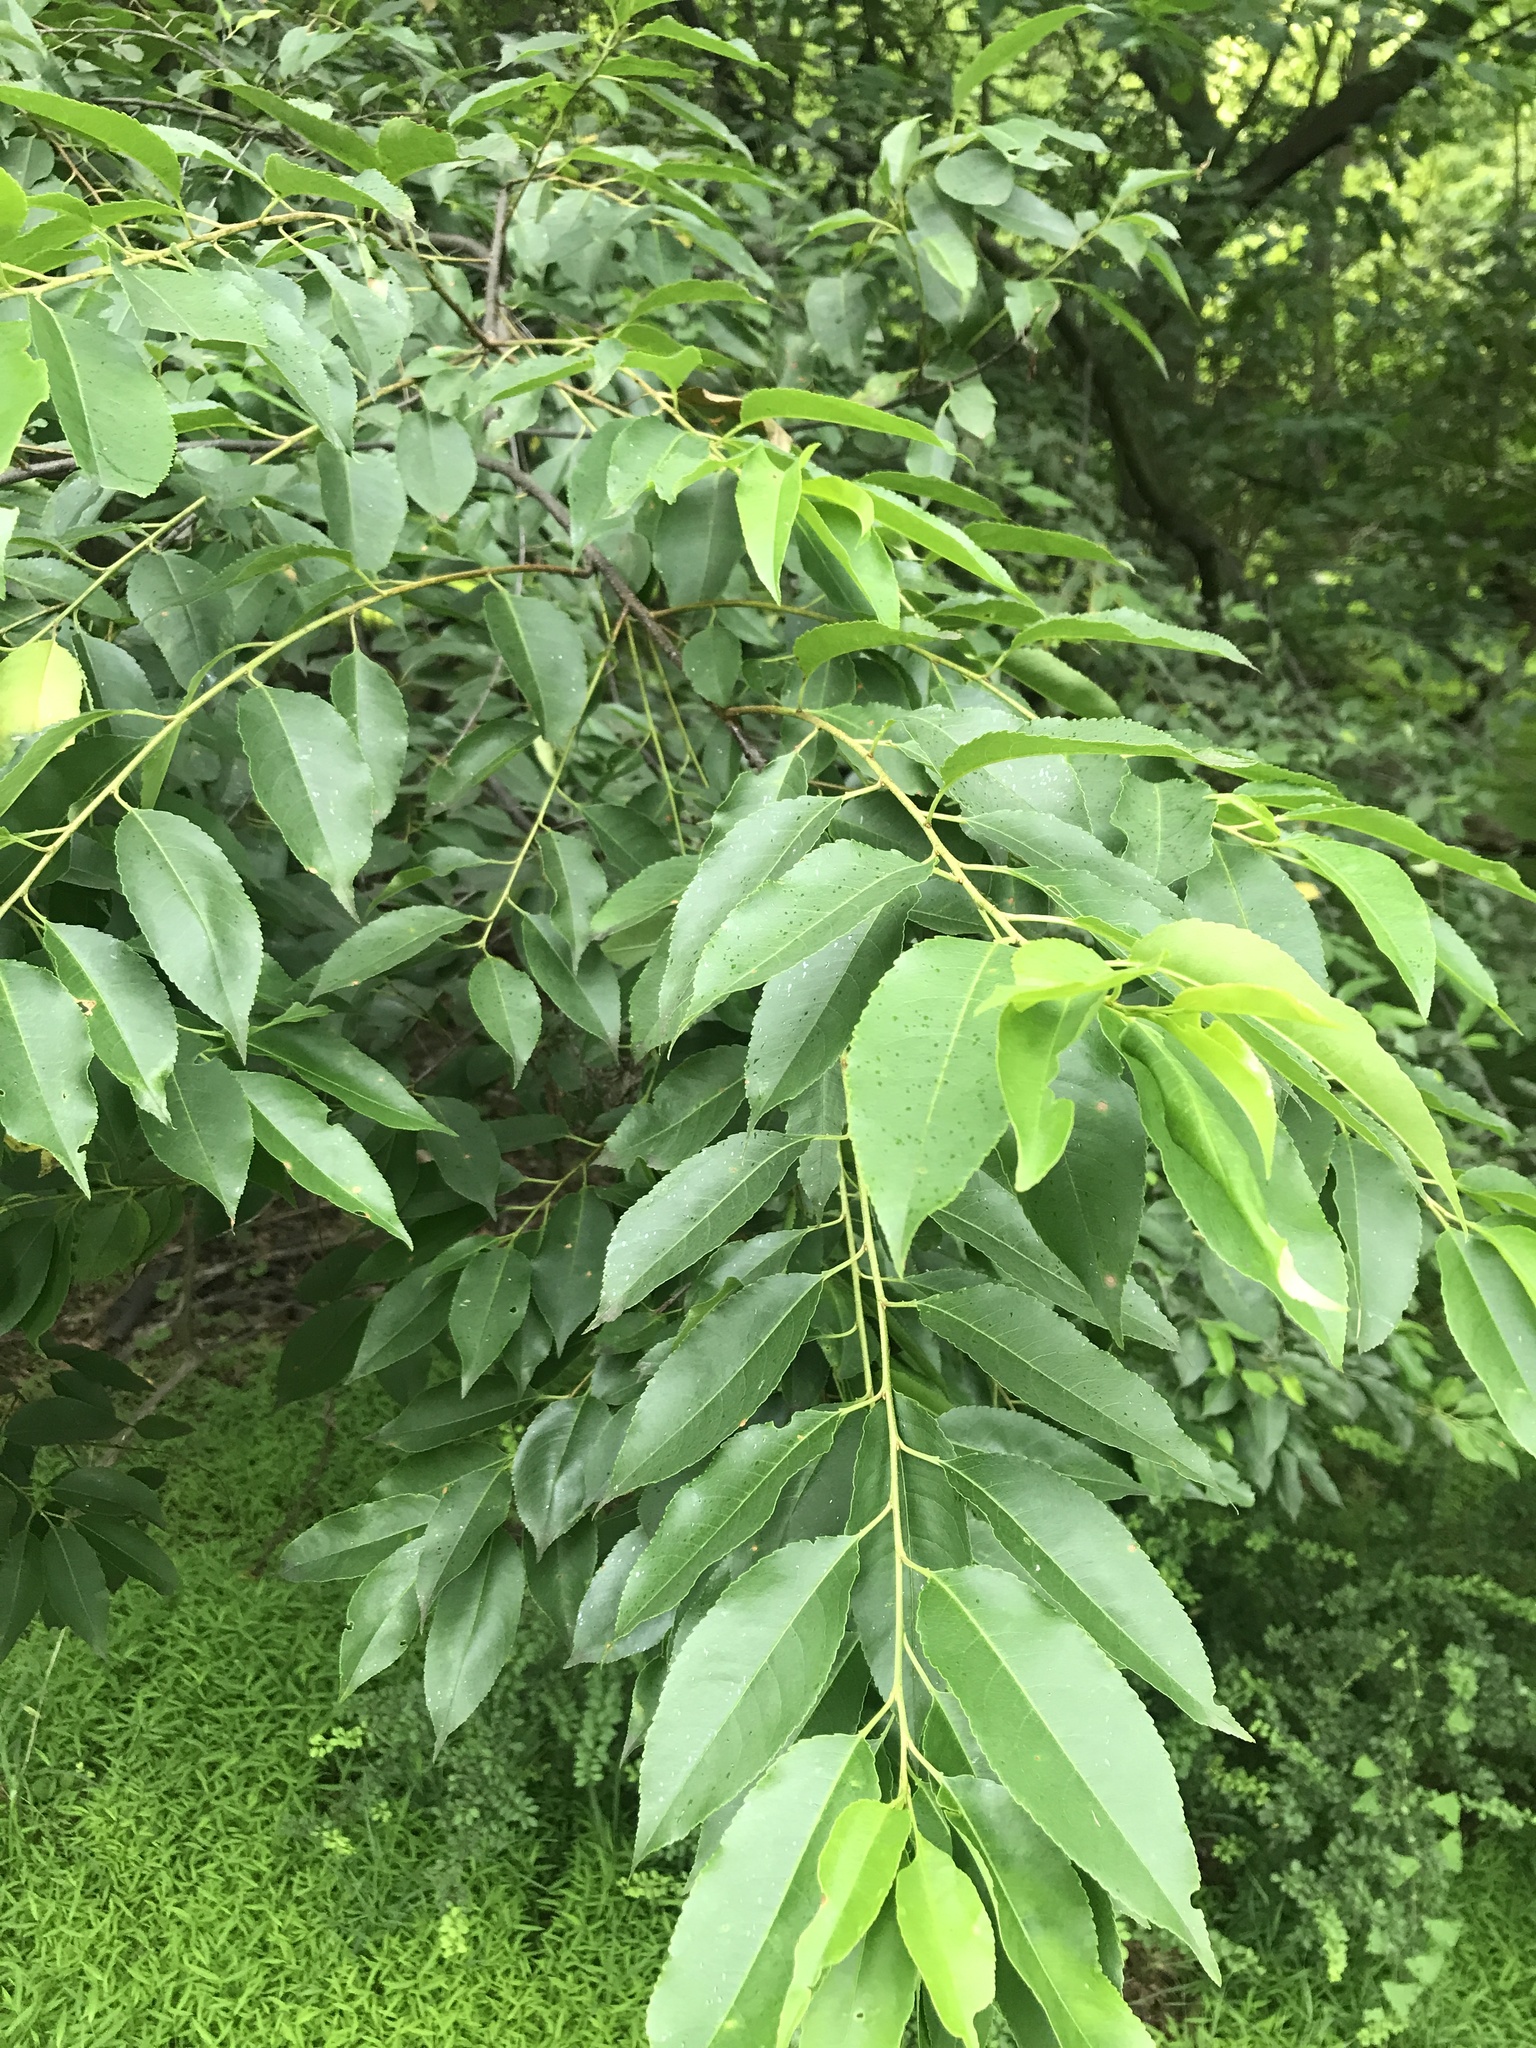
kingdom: Plantae
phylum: Tracheophyta
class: Magnoliopsida
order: Rosales
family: Rosaceae
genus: Prunus
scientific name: Prunus serotina
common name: Black cherry
